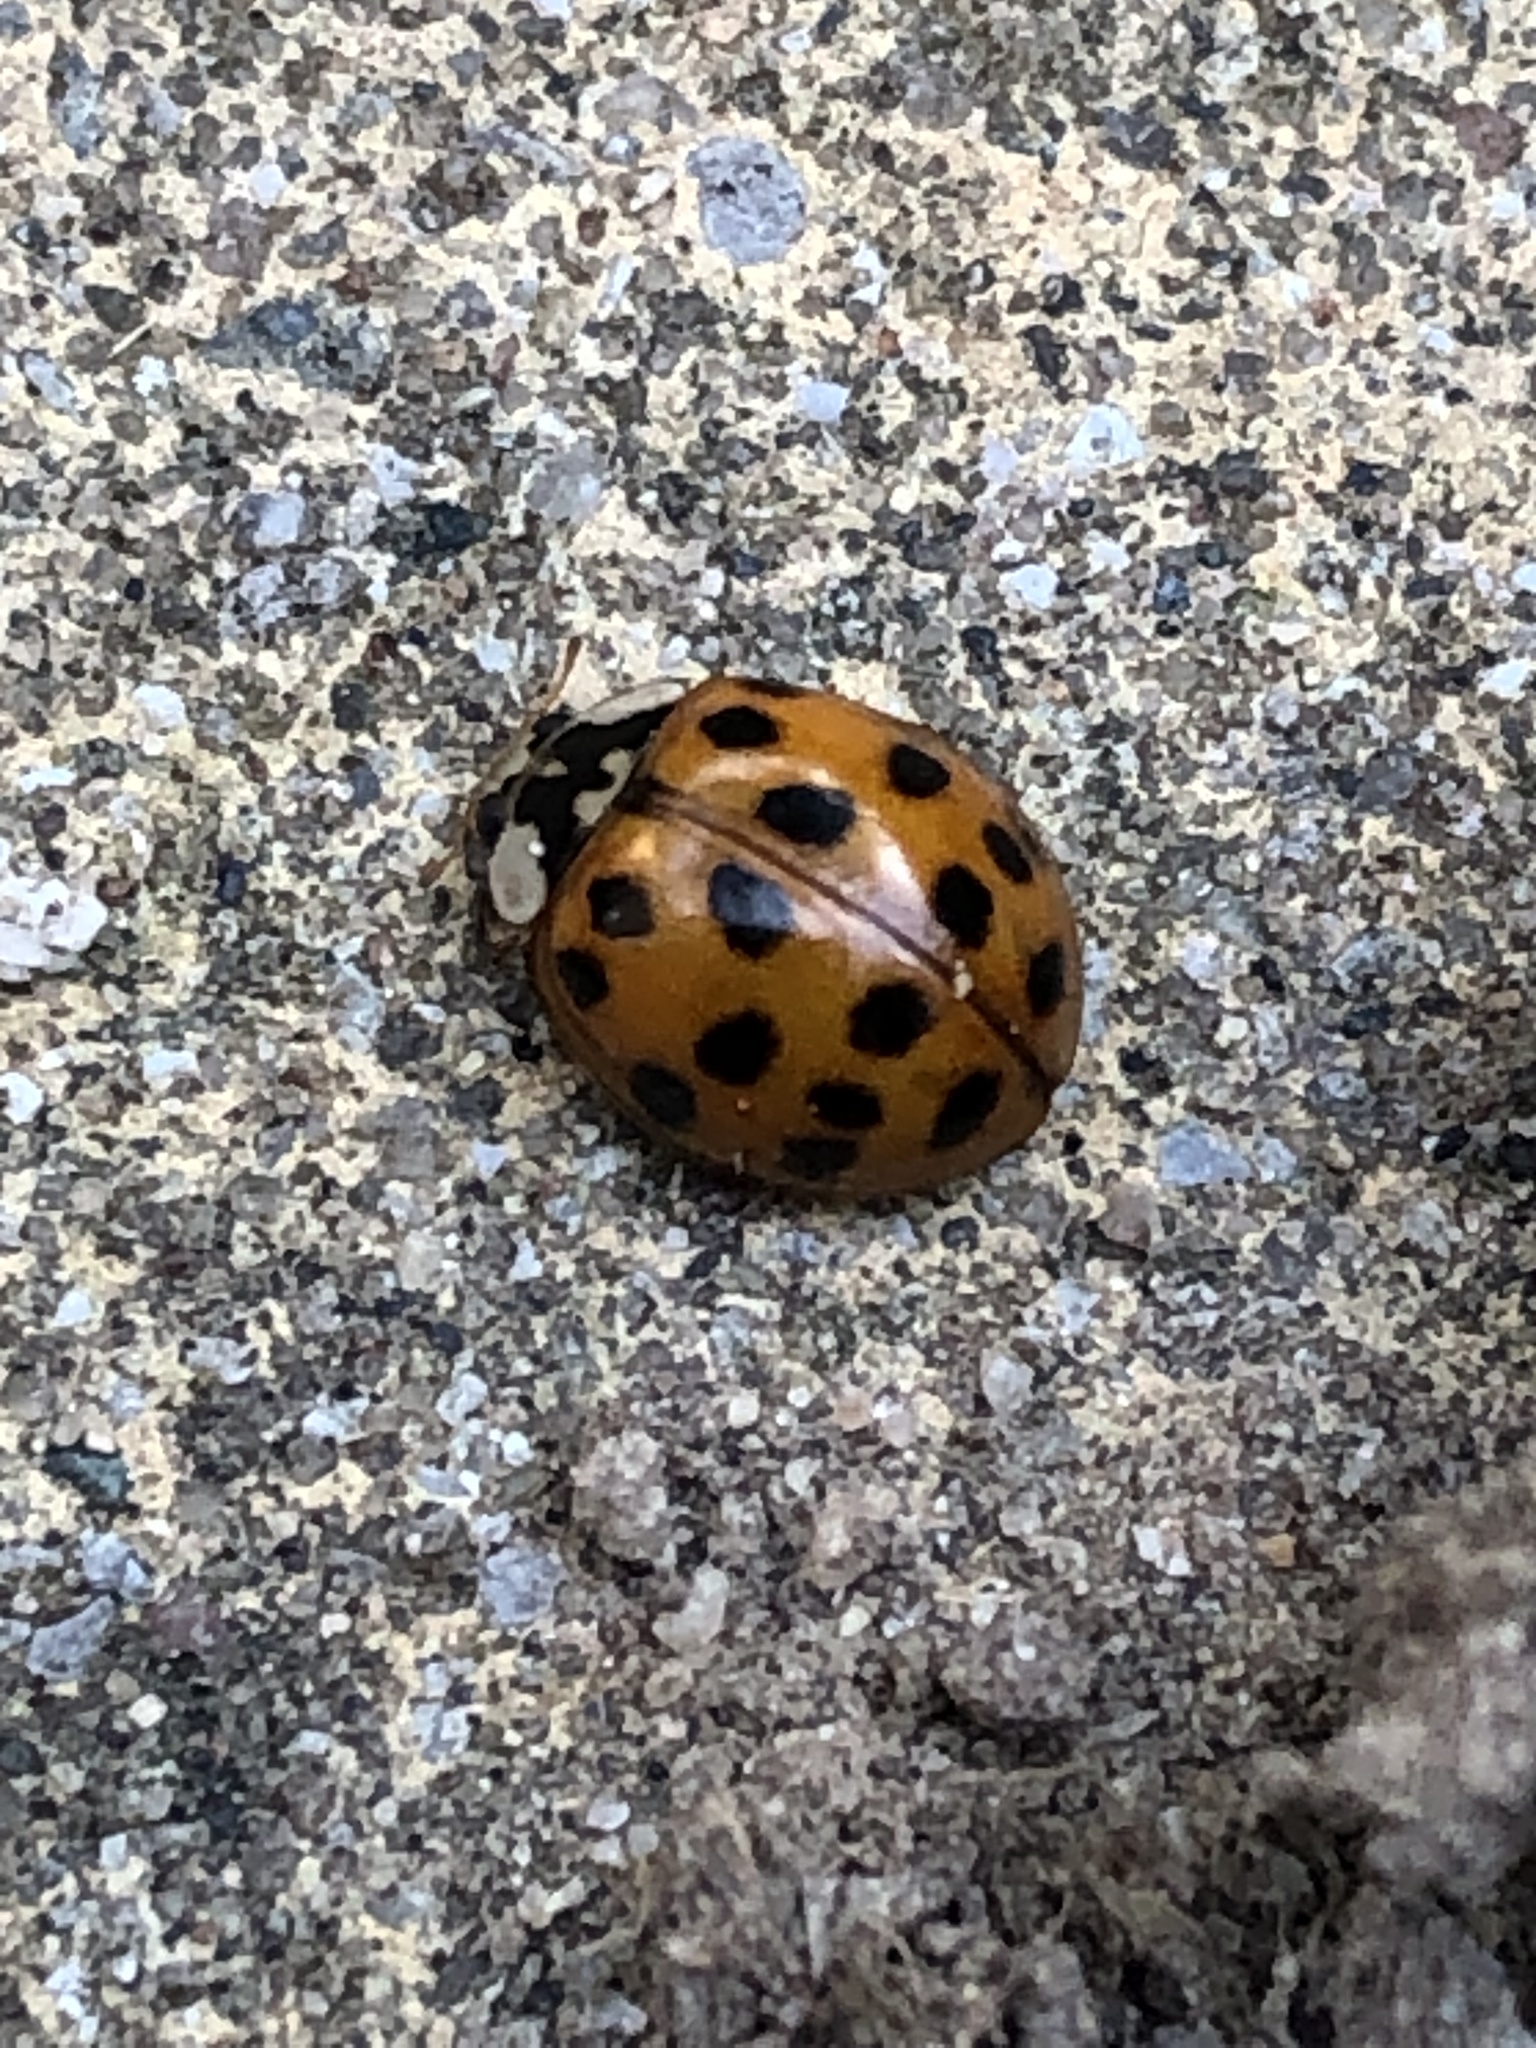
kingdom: Animalia
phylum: Arthropoda
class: Insecta
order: Coleoptera
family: Coccinellidae
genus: Harmonia
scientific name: Harmonia axyridis
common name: Harlequin ladybird
